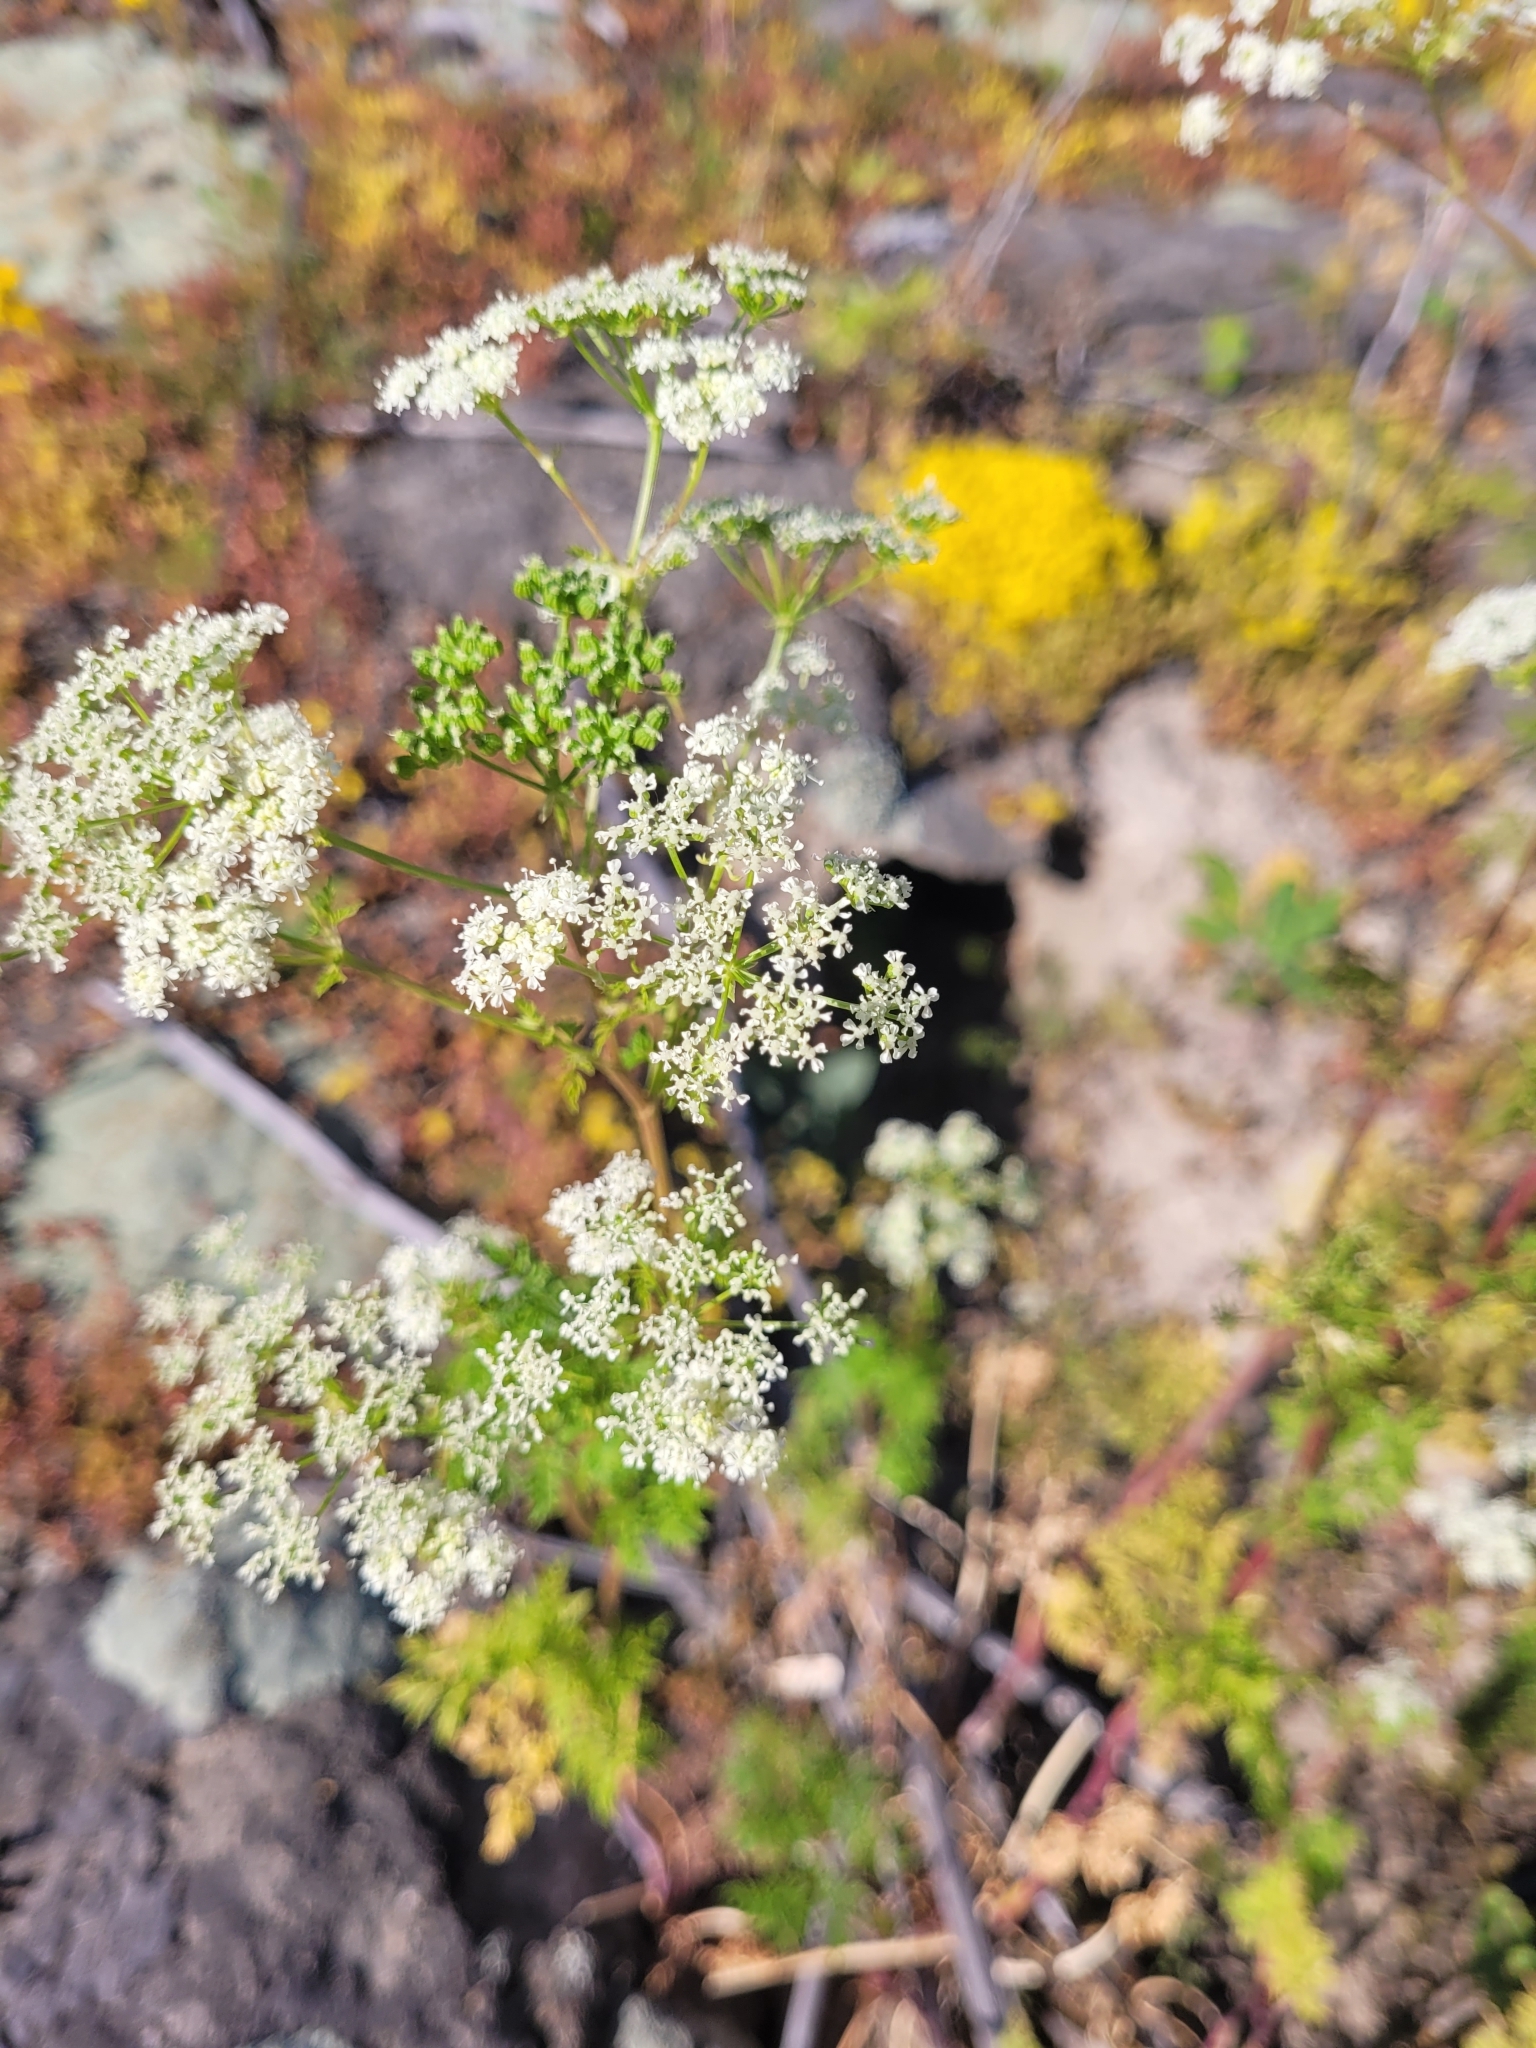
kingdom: Plantae
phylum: Tracheophyta
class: Magnoliopsida
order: Apiales
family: Apiaceae
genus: Conium
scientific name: Conium maculatum
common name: Hemlock
